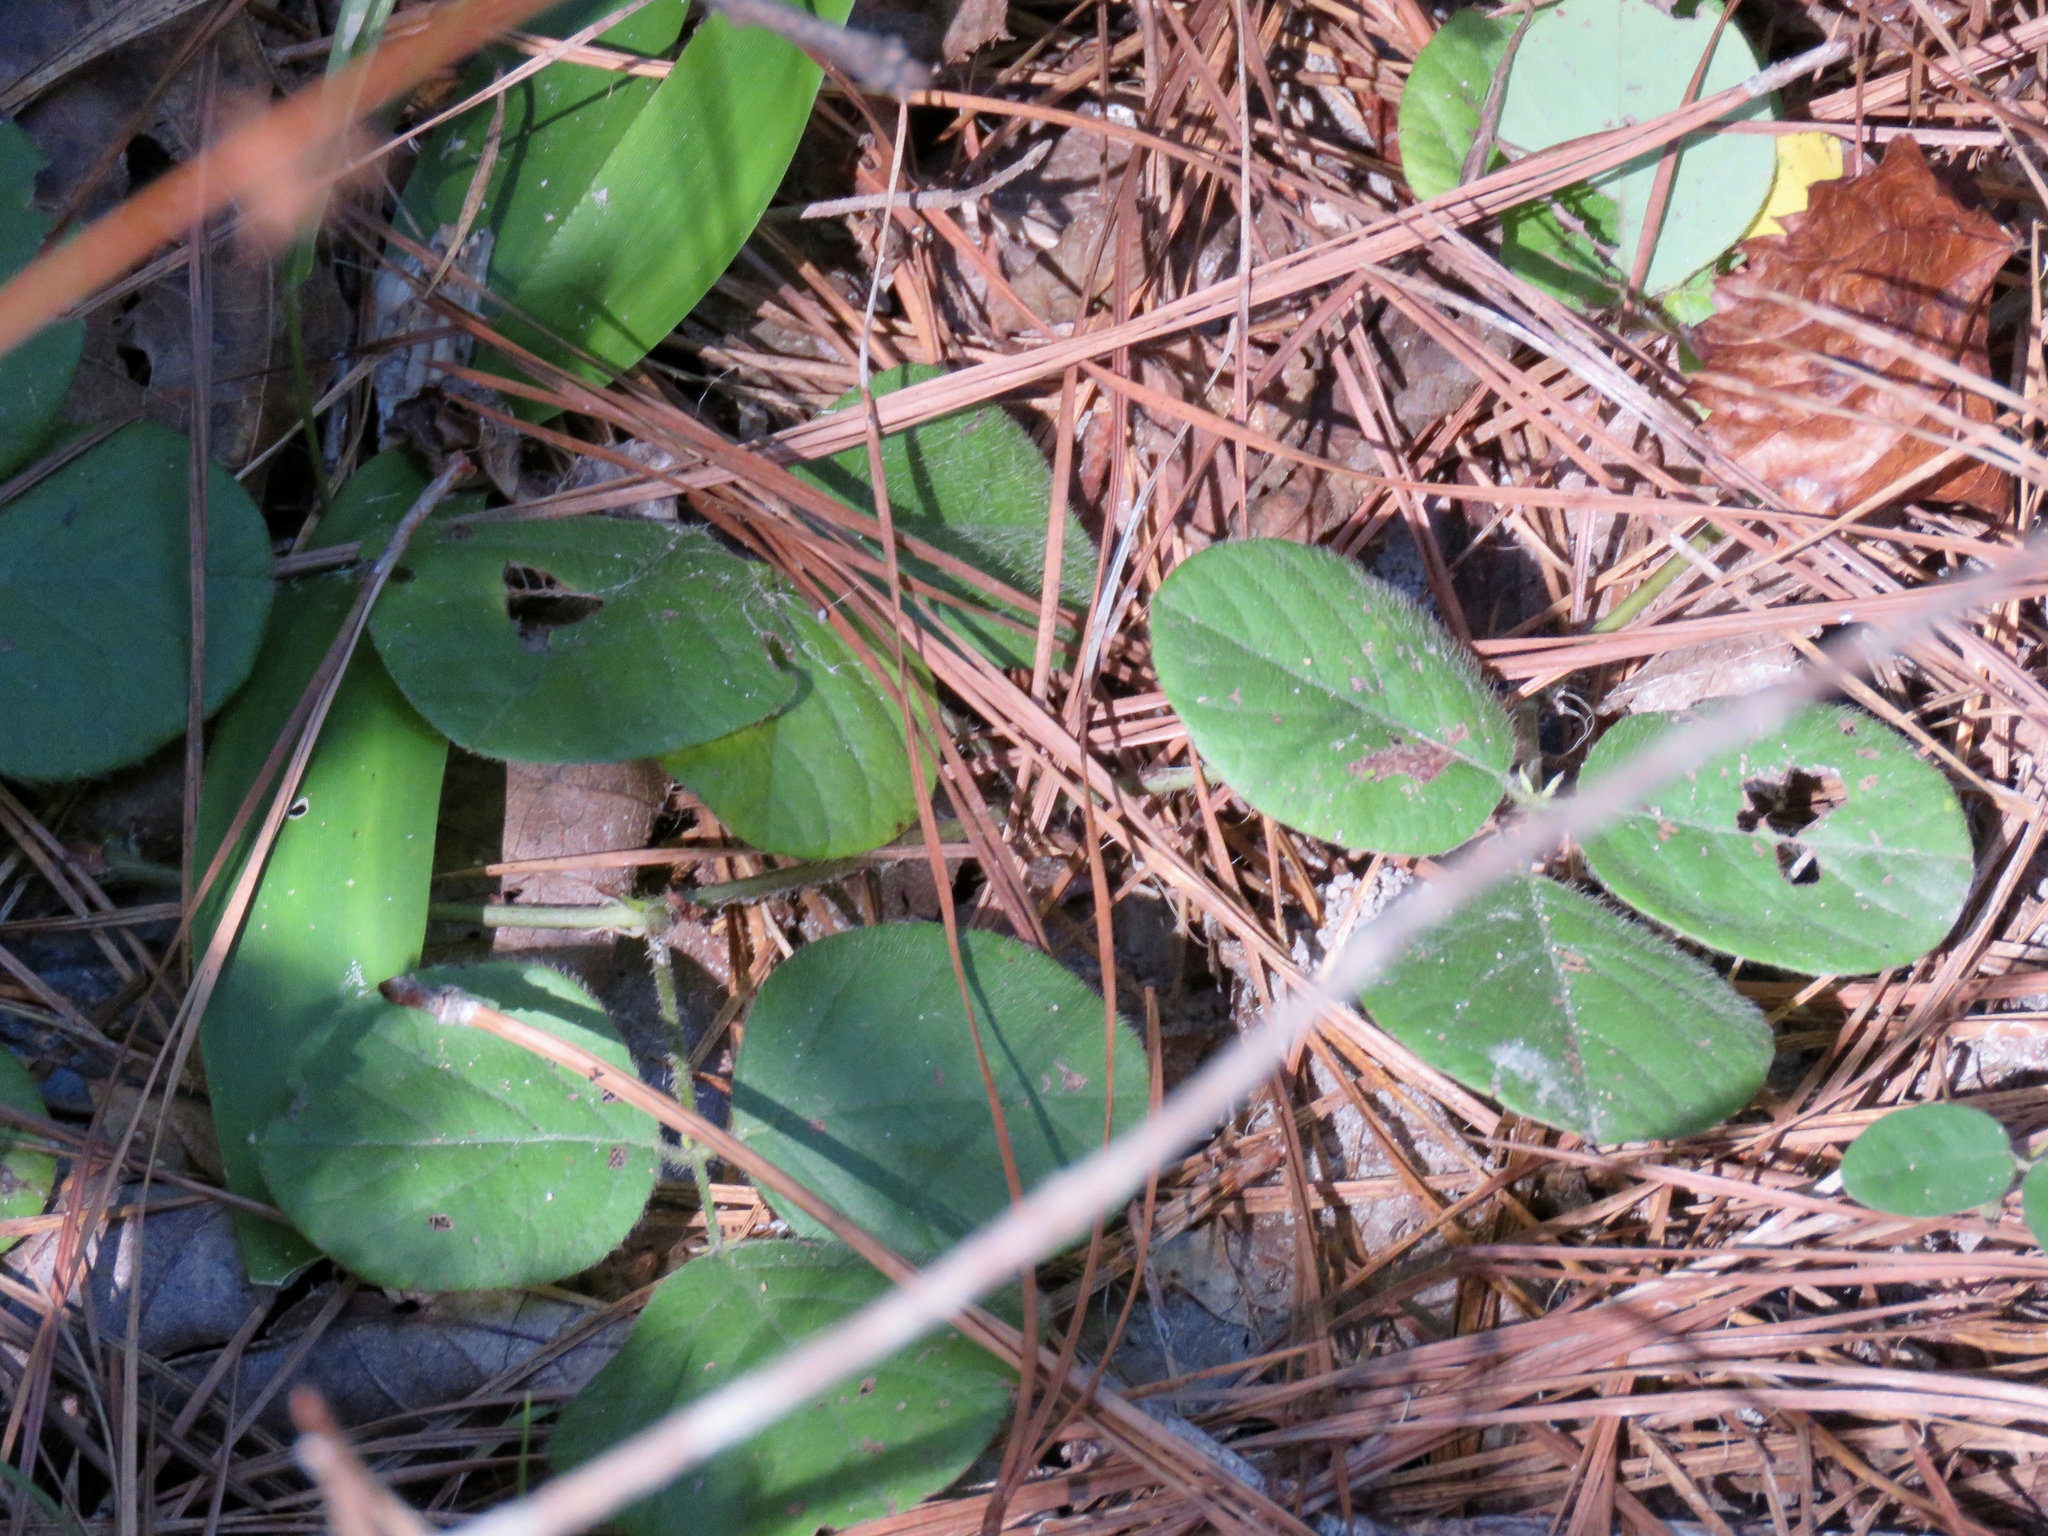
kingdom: Plantae
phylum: Tracheophyta
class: Magnoliopsida
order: Fabales
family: Fabaceae
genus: Desmodium
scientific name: Desmodium rotundifolium
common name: Dollarleaf
